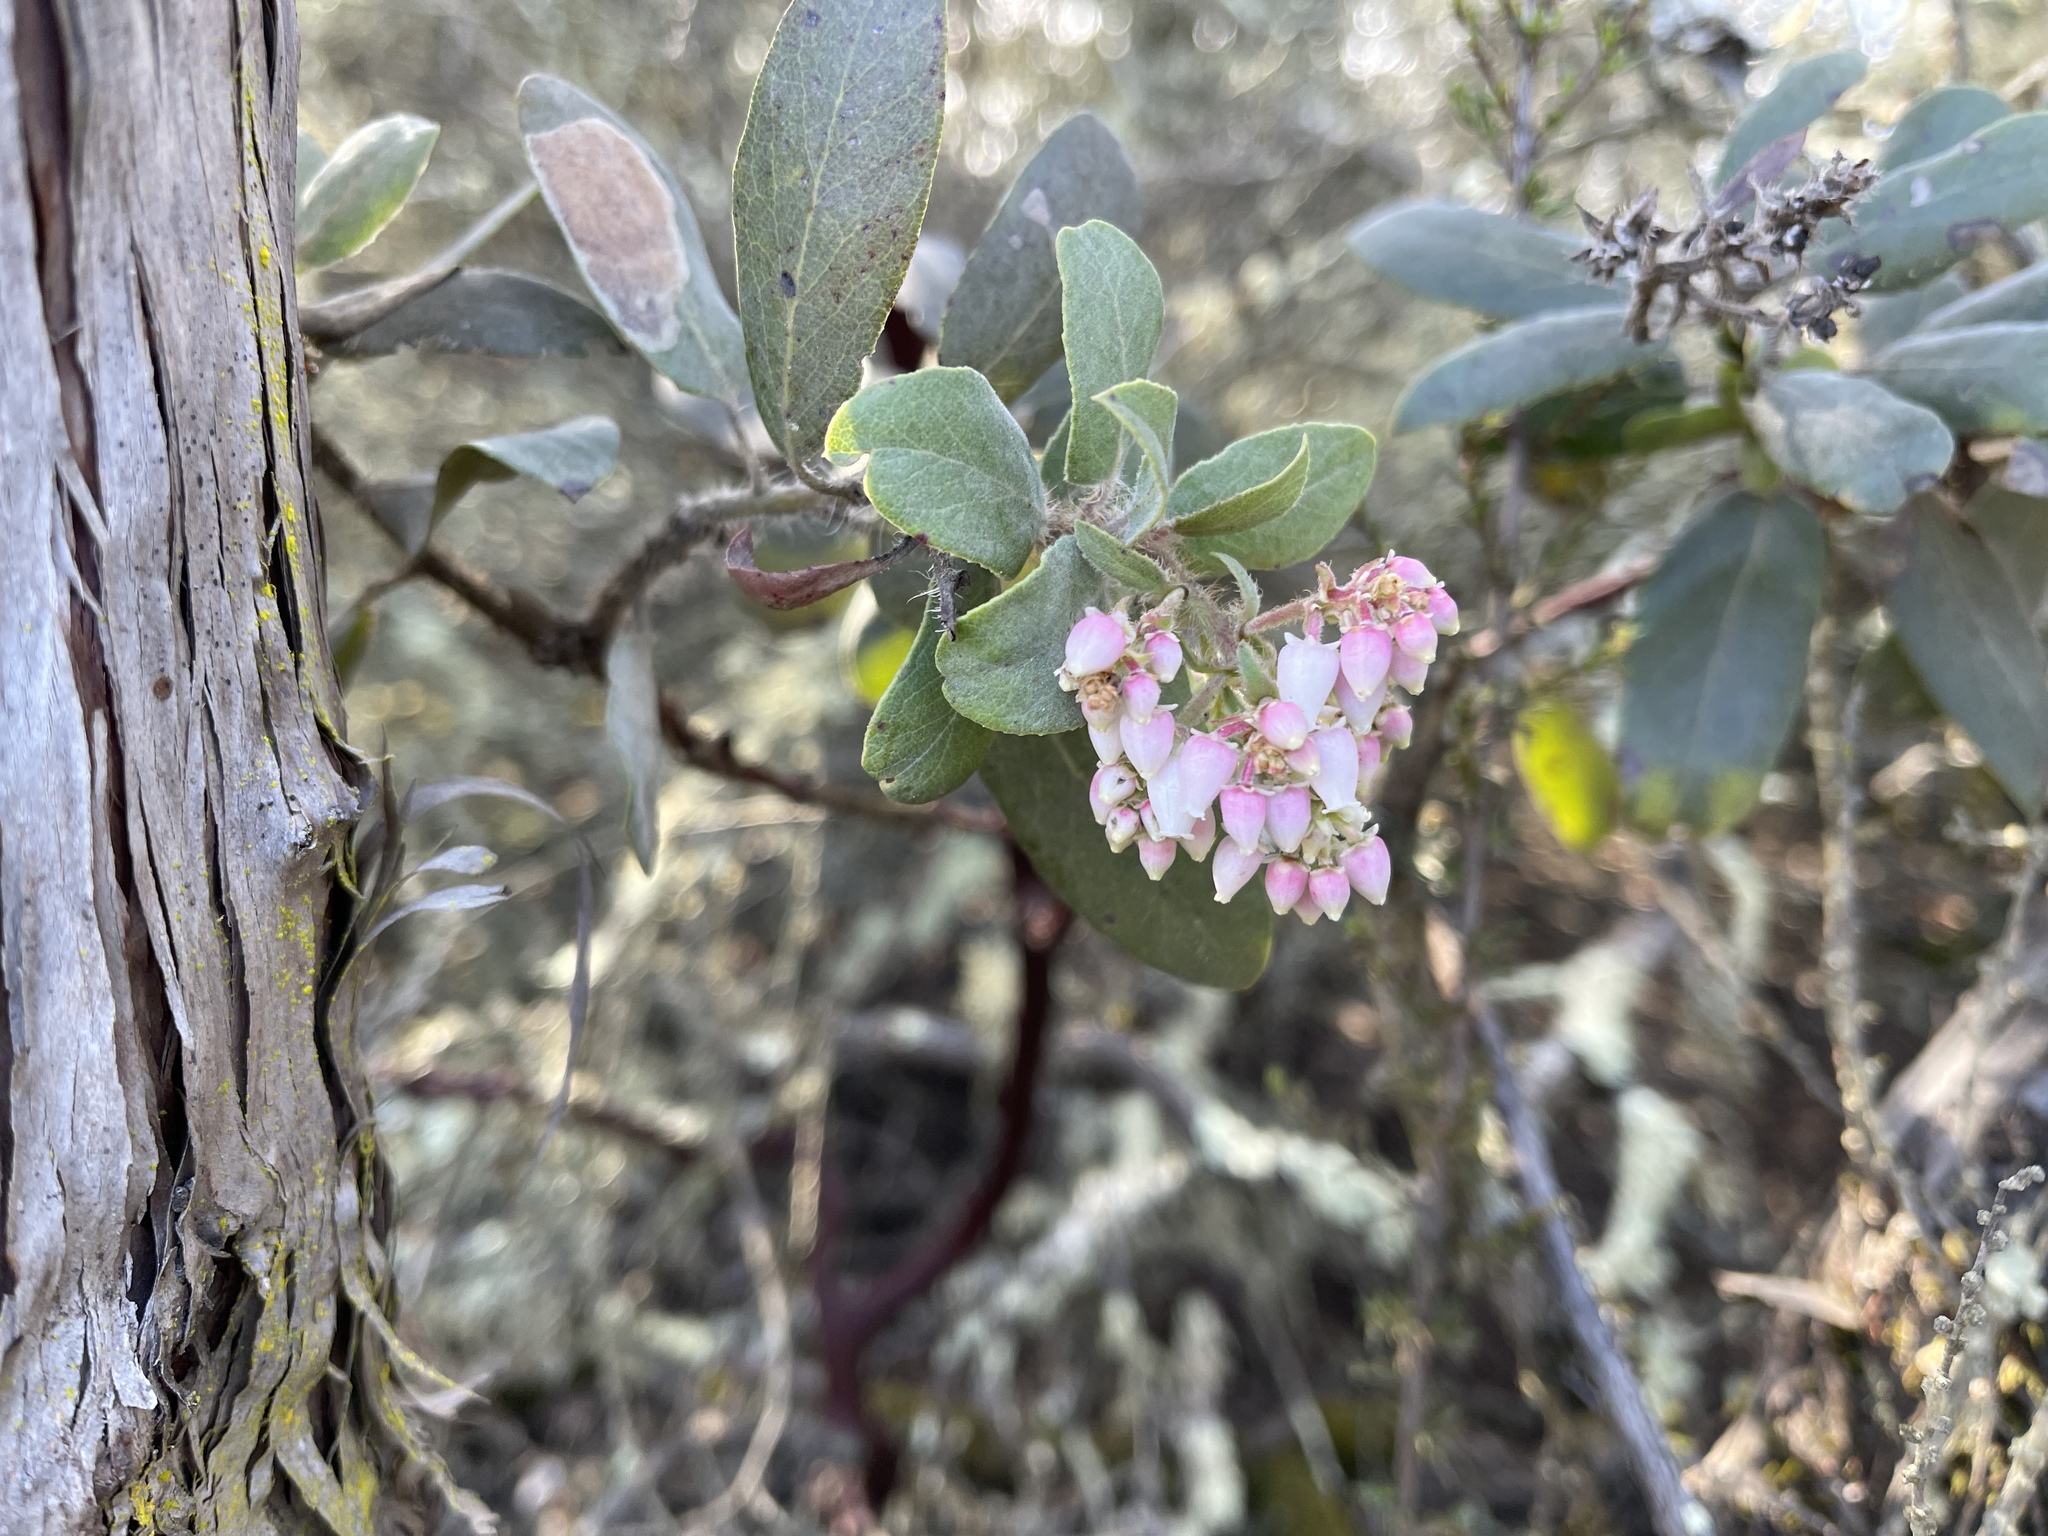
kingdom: Plantae
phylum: Tracheophyta
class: Magnoliopsida
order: Ericales
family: Ericaceae
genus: Arctostaphylos
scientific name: Arctostaphylos crustacea
